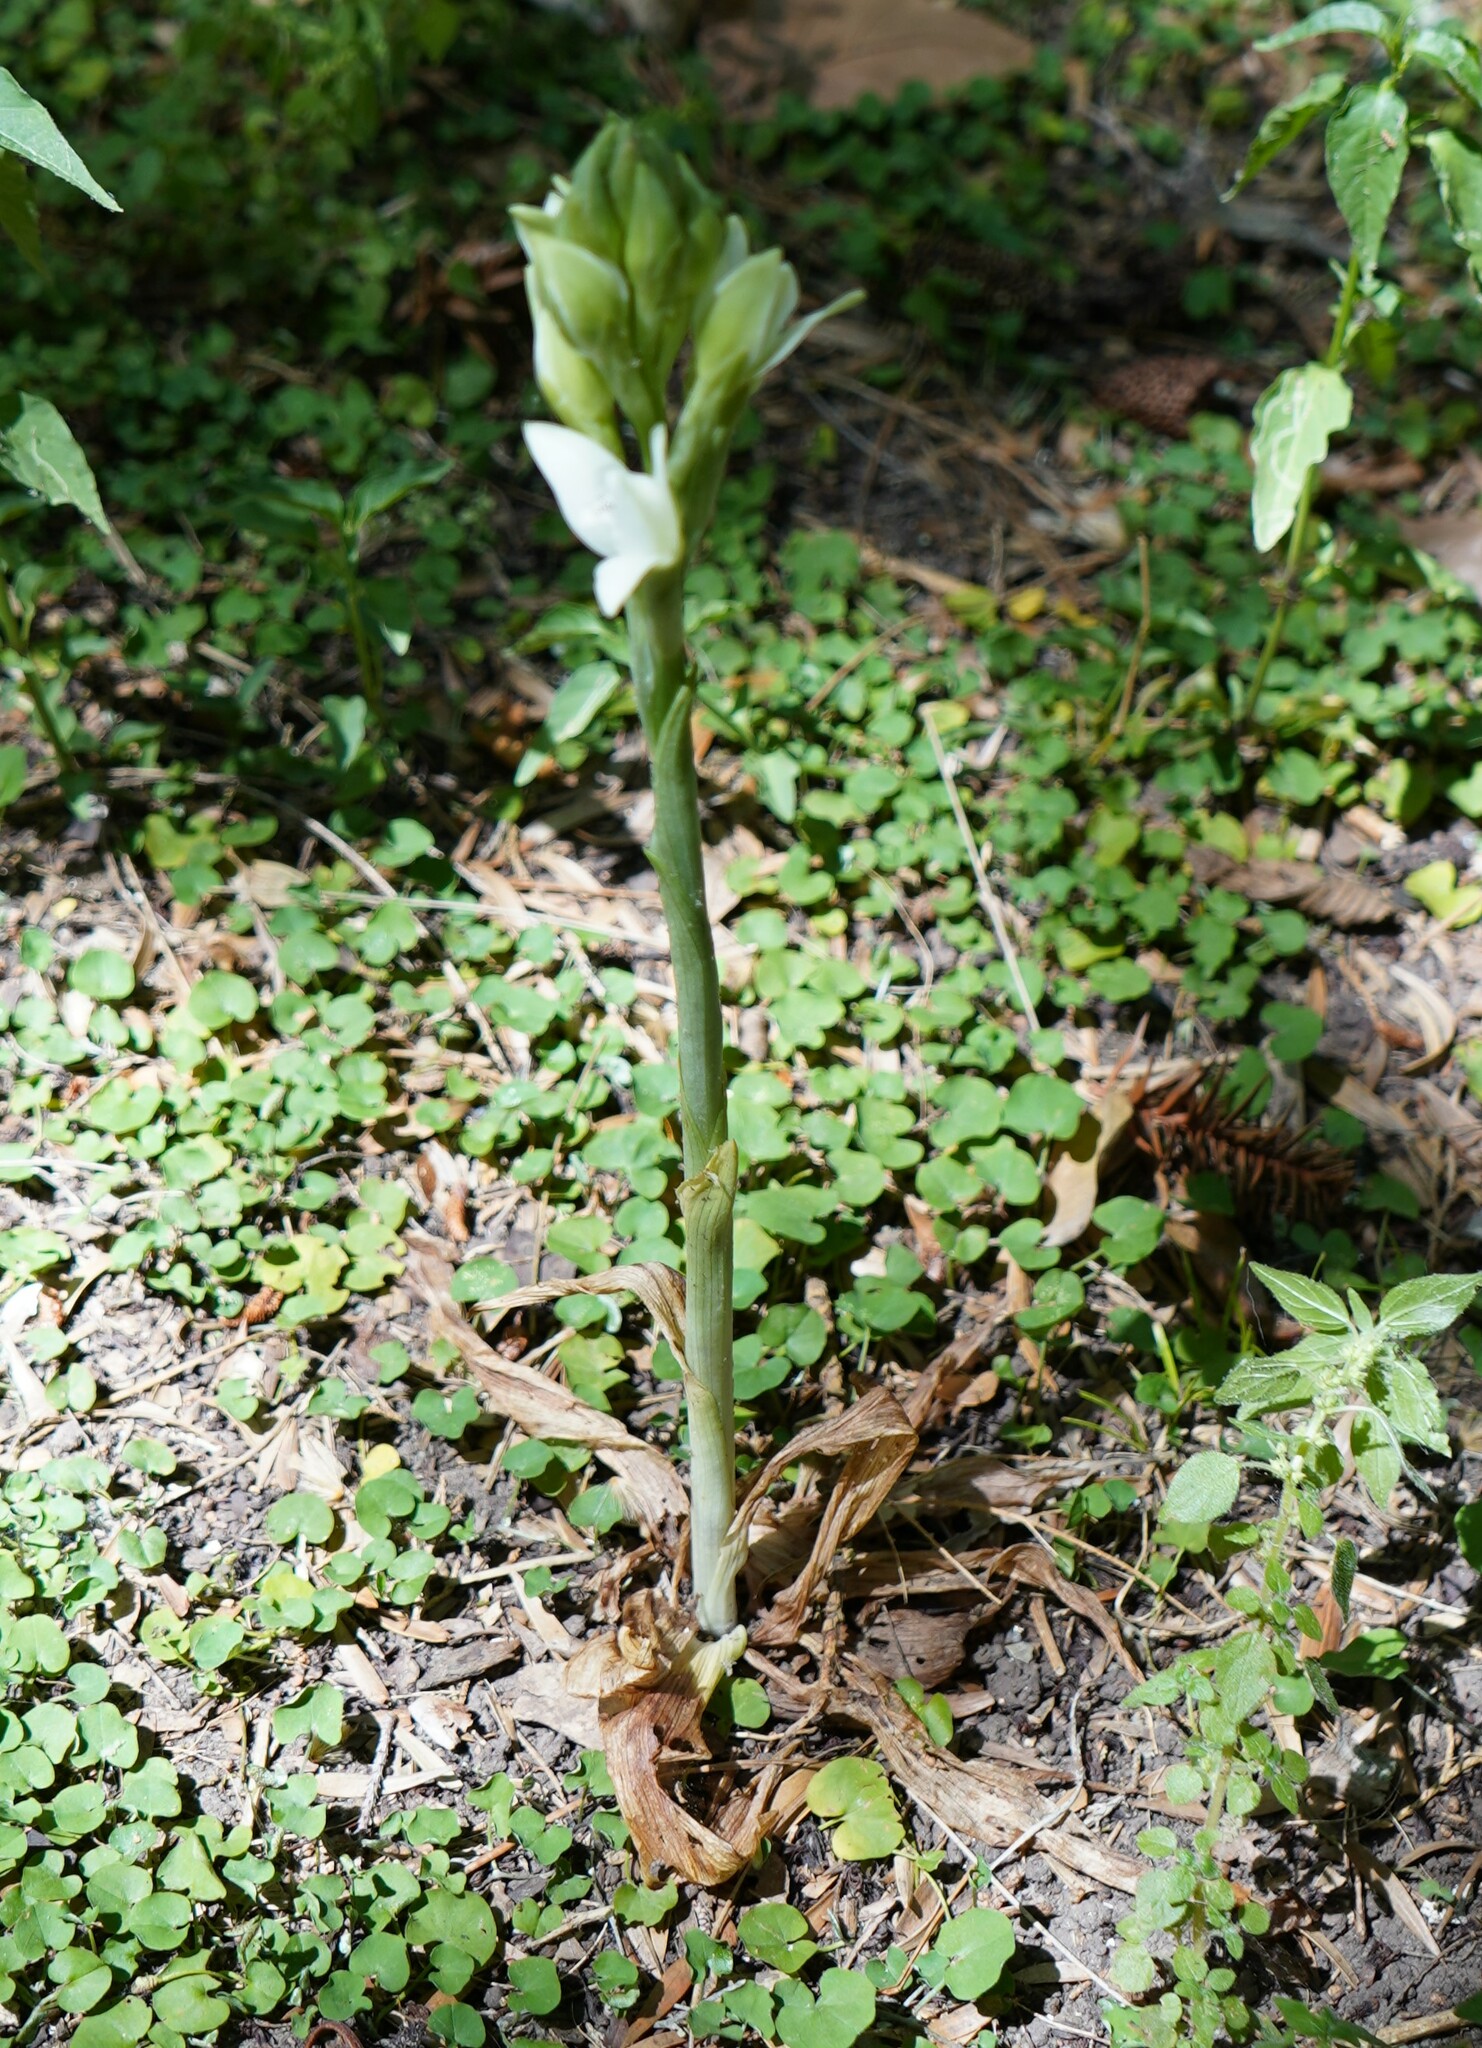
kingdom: Plantae
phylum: Tracheophyta
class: Liliopsida
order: Asparagales
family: Orchidaceae
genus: Chloraea
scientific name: Chloraea membranacea
